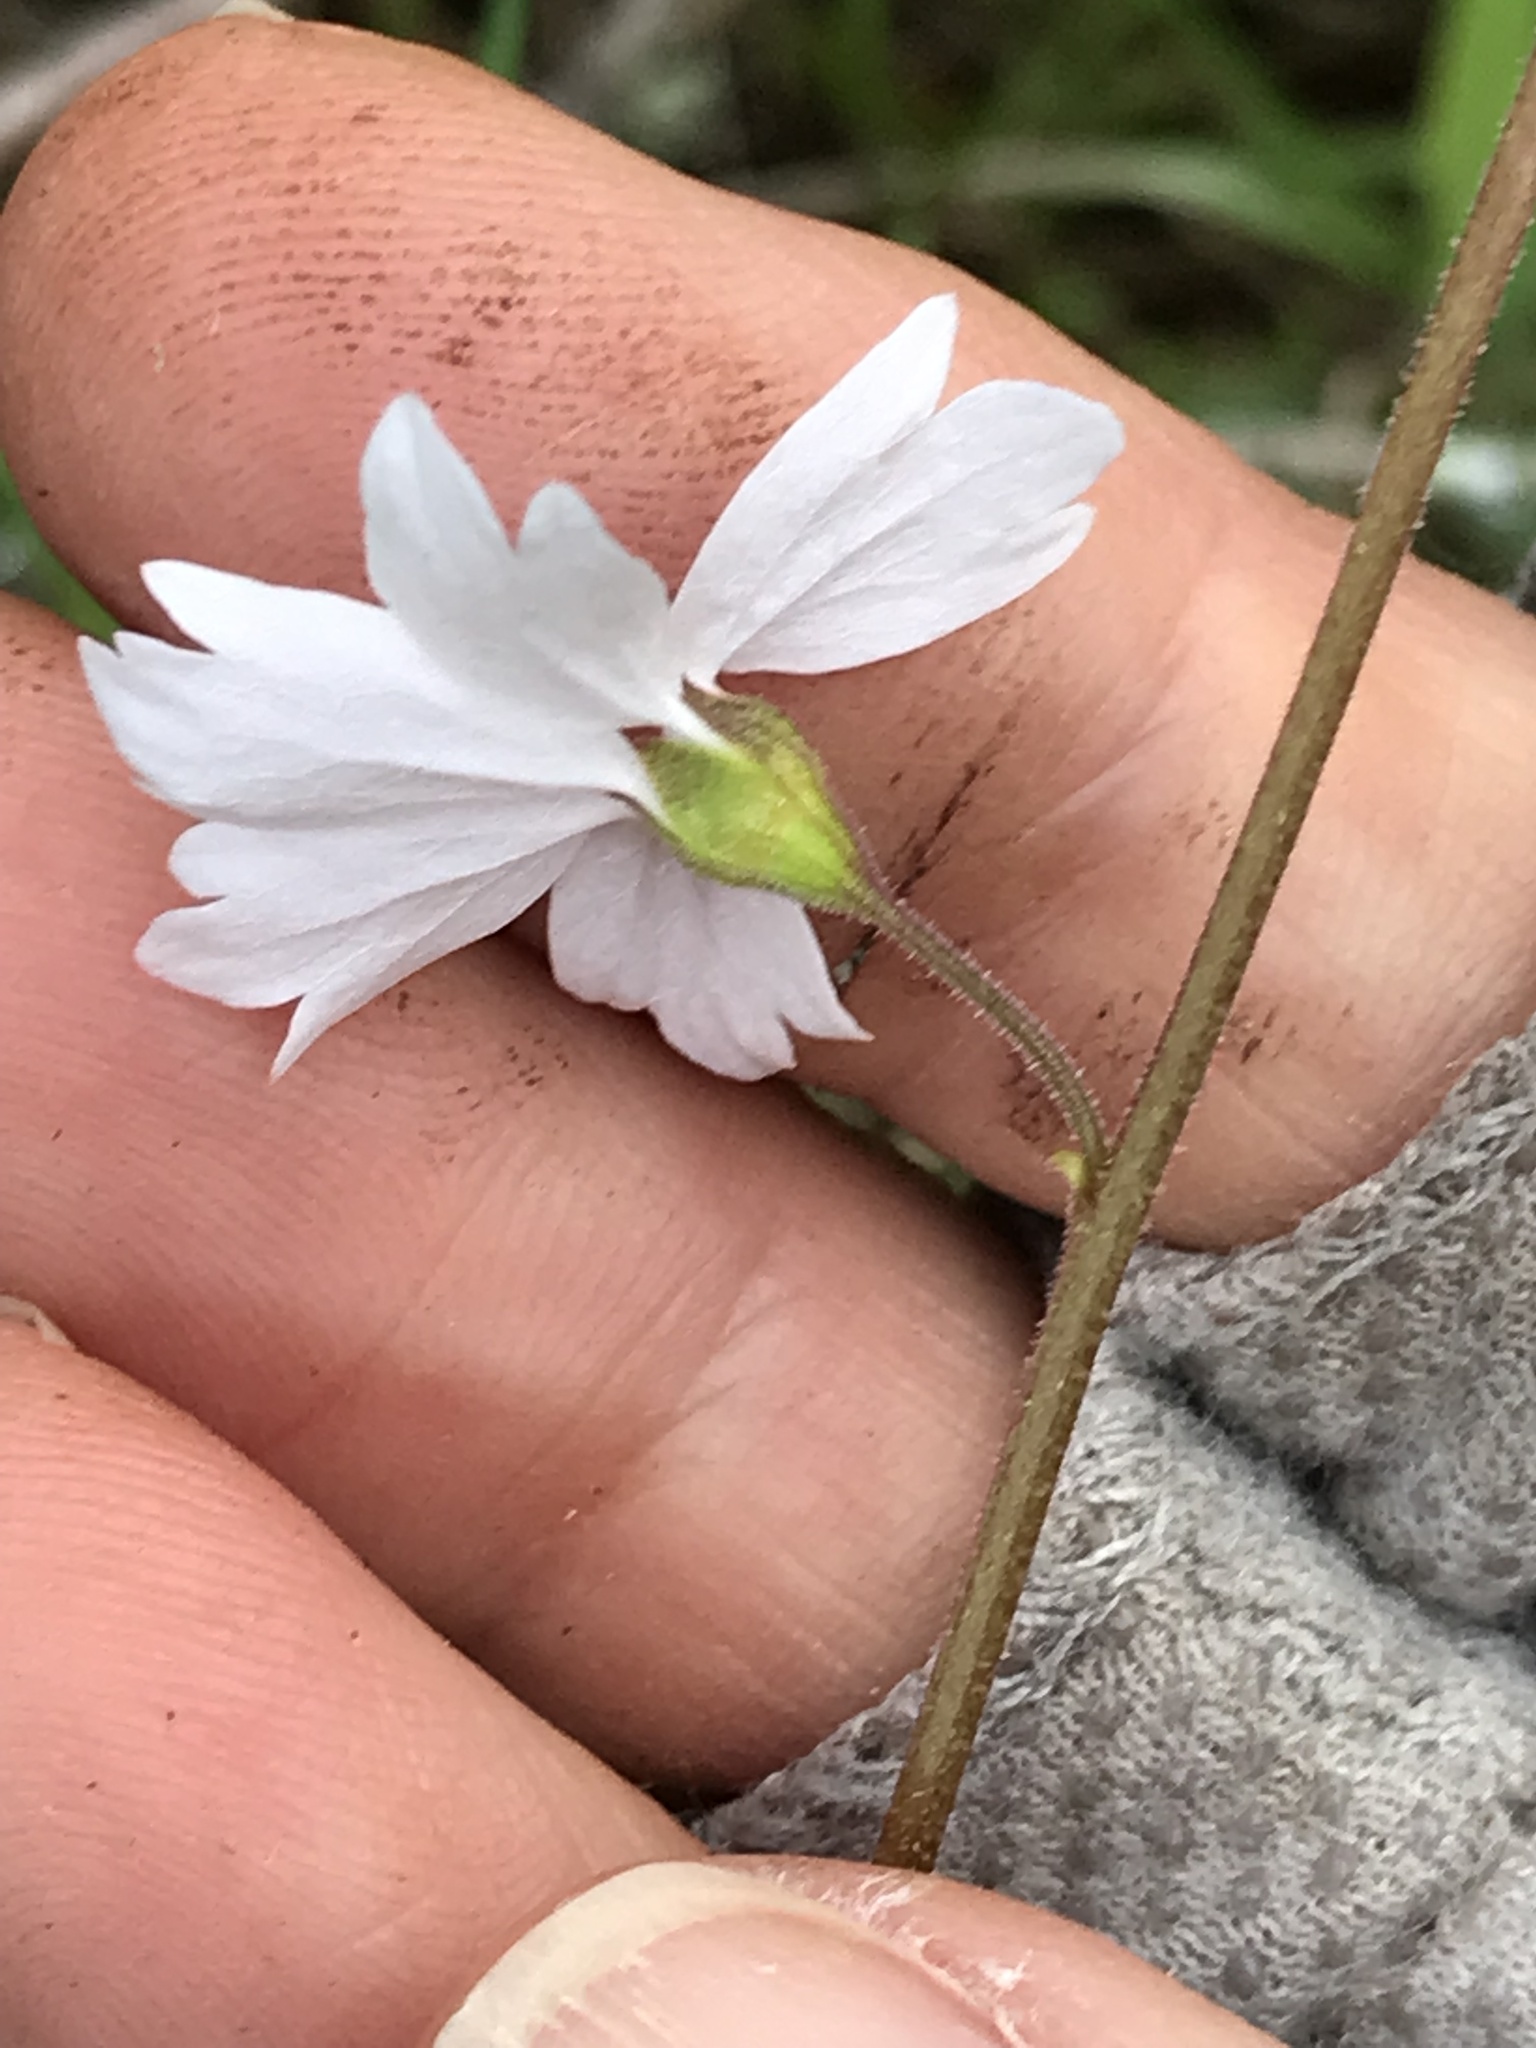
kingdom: Plantae
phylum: Tracheophyta
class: Magnoliopsida
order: Saxifragales
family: Saxifragaceae
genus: Lithophragma
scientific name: Lithophragma affine
